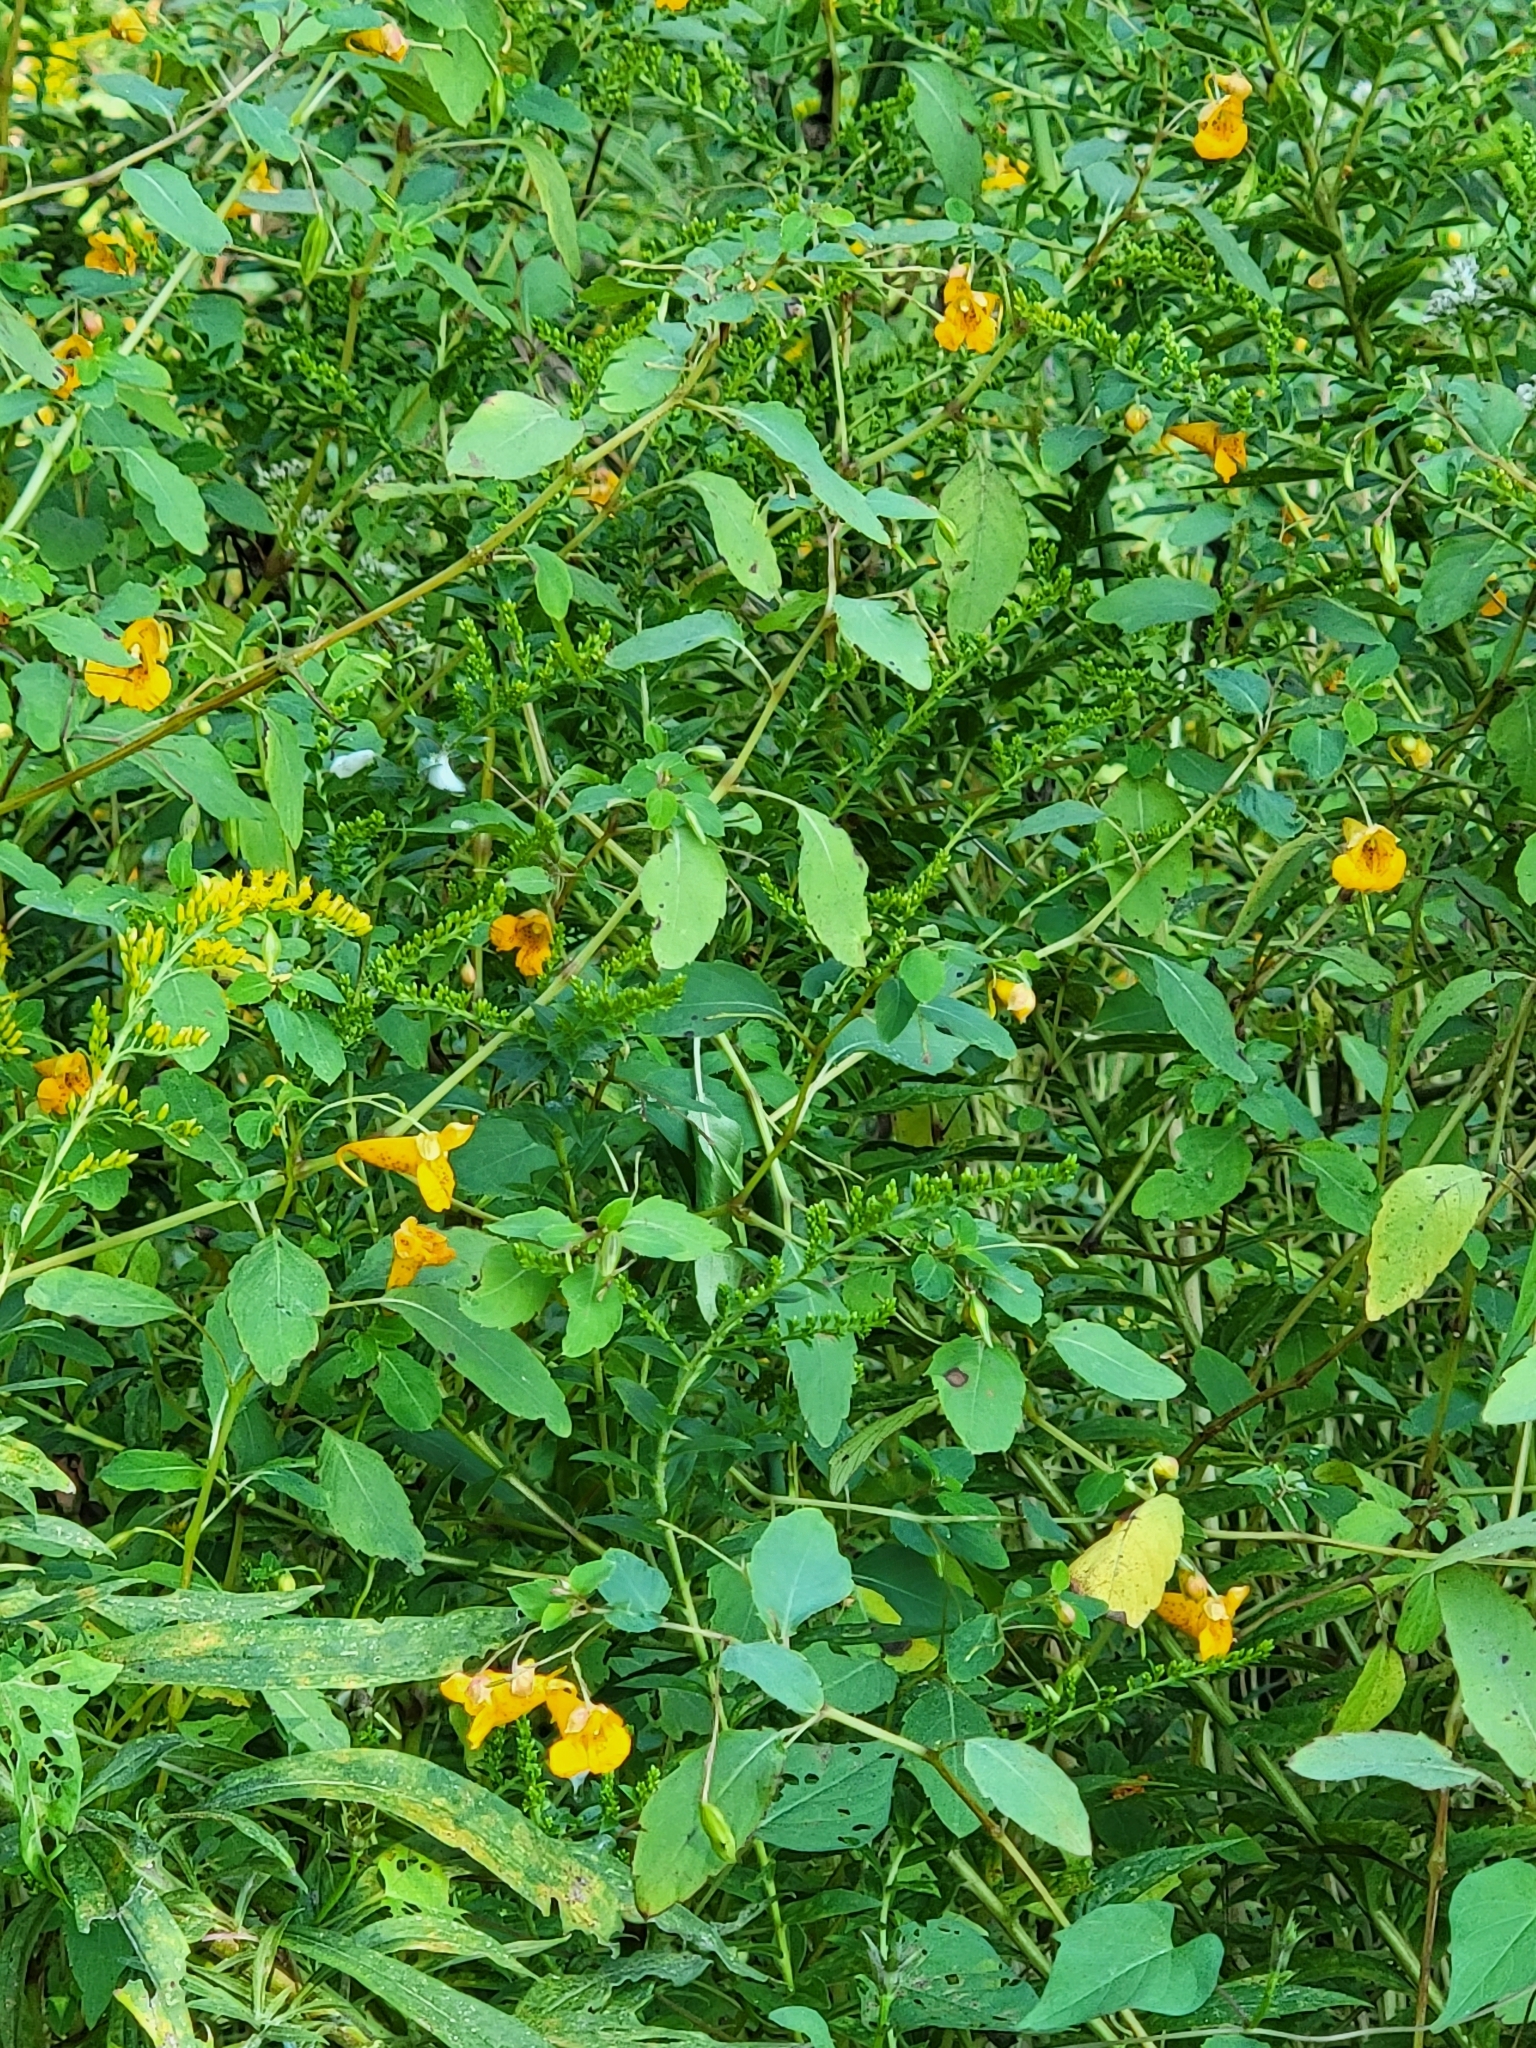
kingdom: Plantae
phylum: Tracheophyta
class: Magnoliopsida
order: Ericales
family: Balsaminaceae
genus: Impatiens
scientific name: Impatiens capensis
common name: Orange balsam
